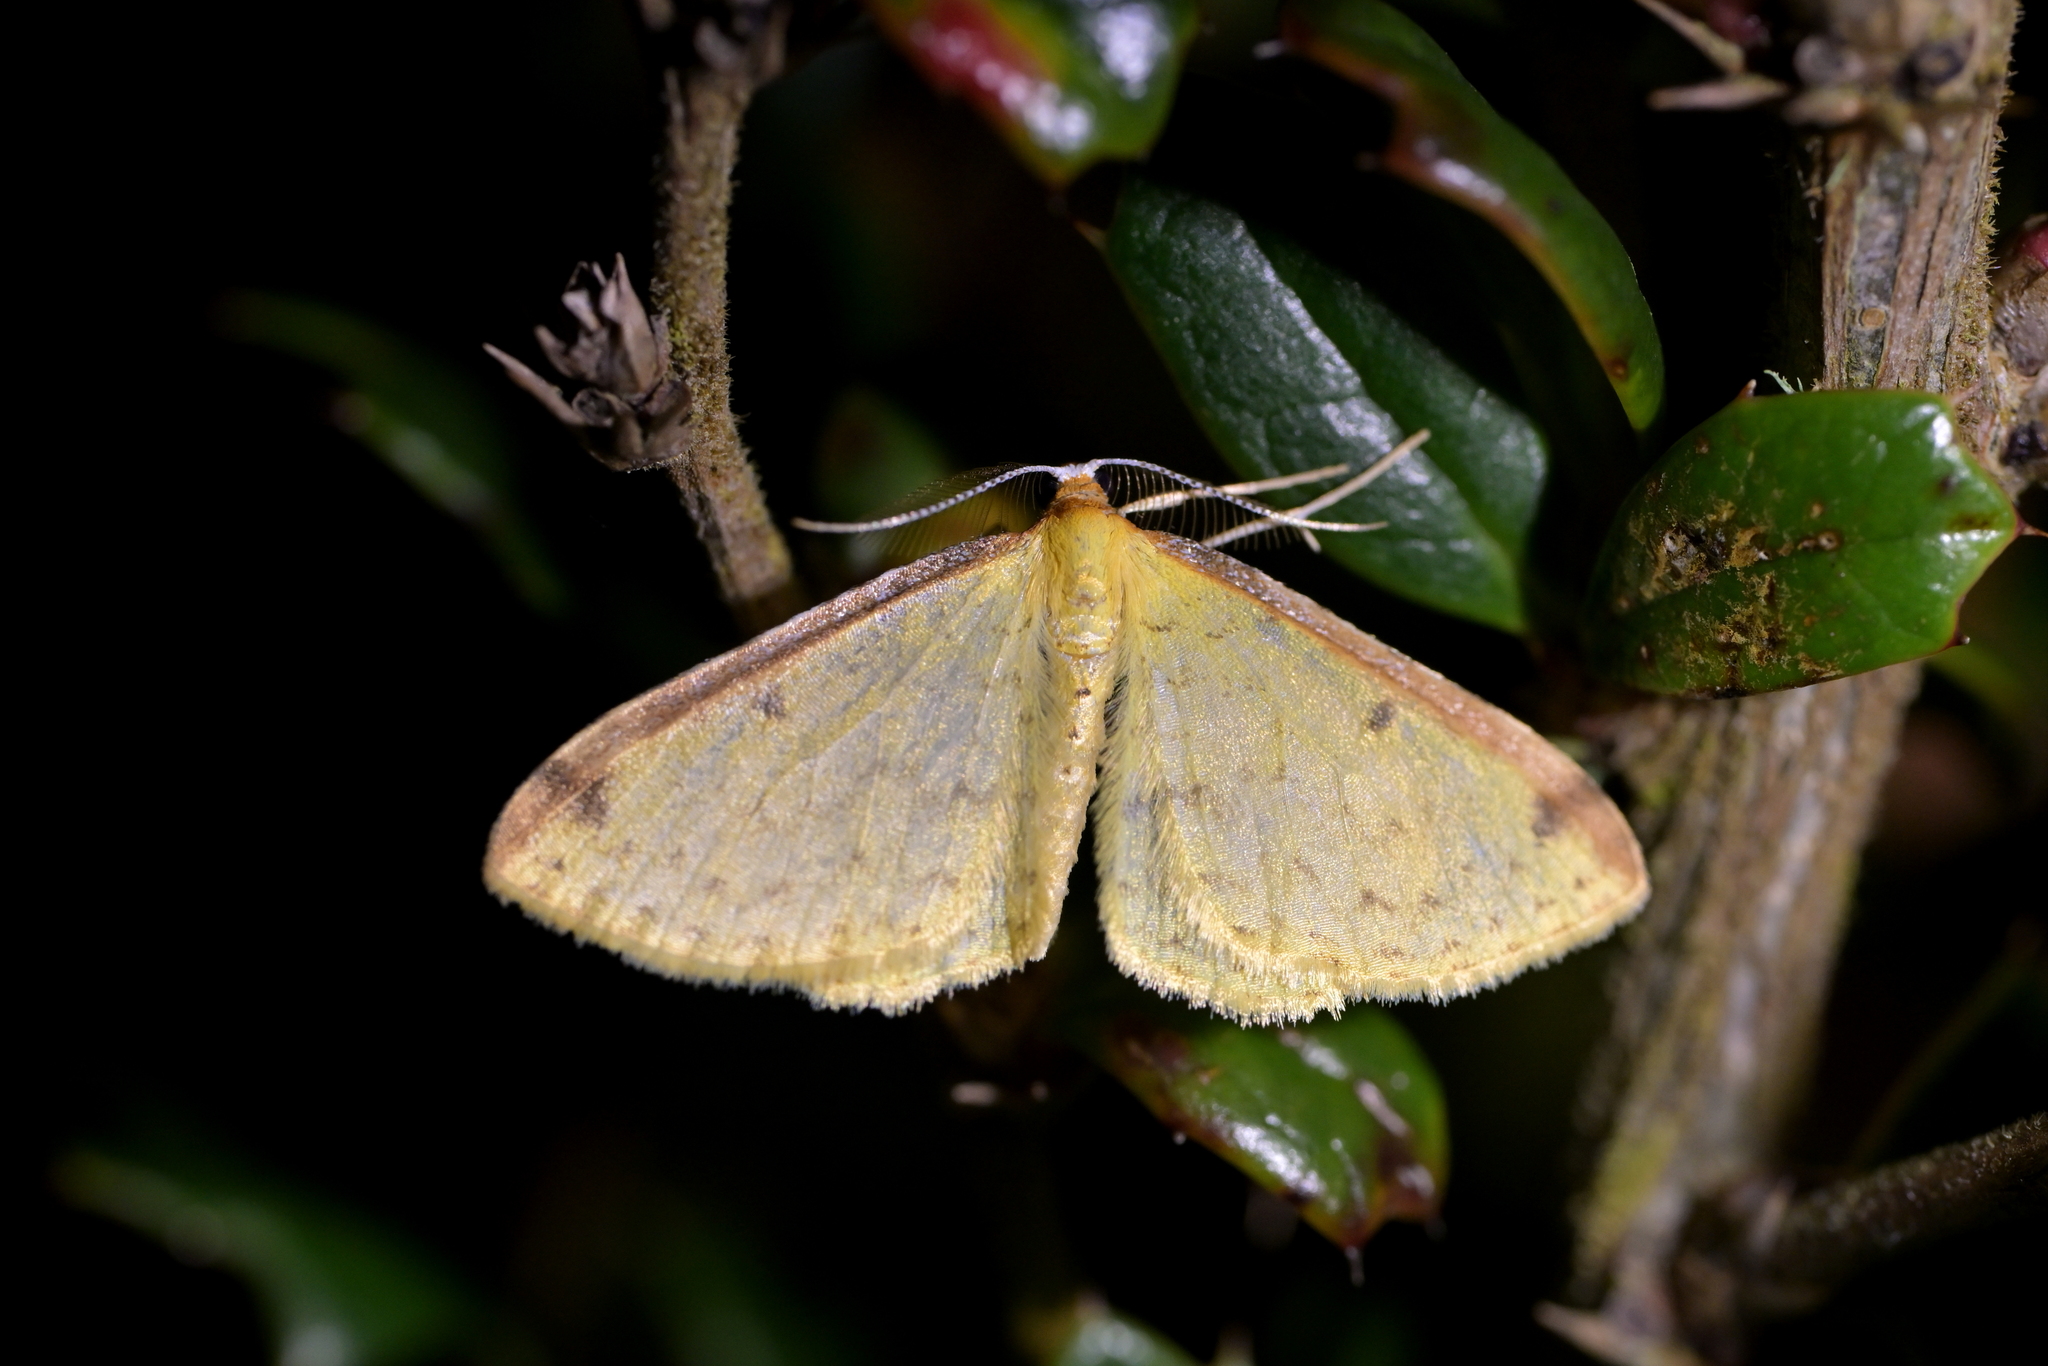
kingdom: Animalia
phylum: Arthropoda
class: Insecta
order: Lepidoptera
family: Geometridae
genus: Epiphryne
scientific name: Epiphryne undosata
